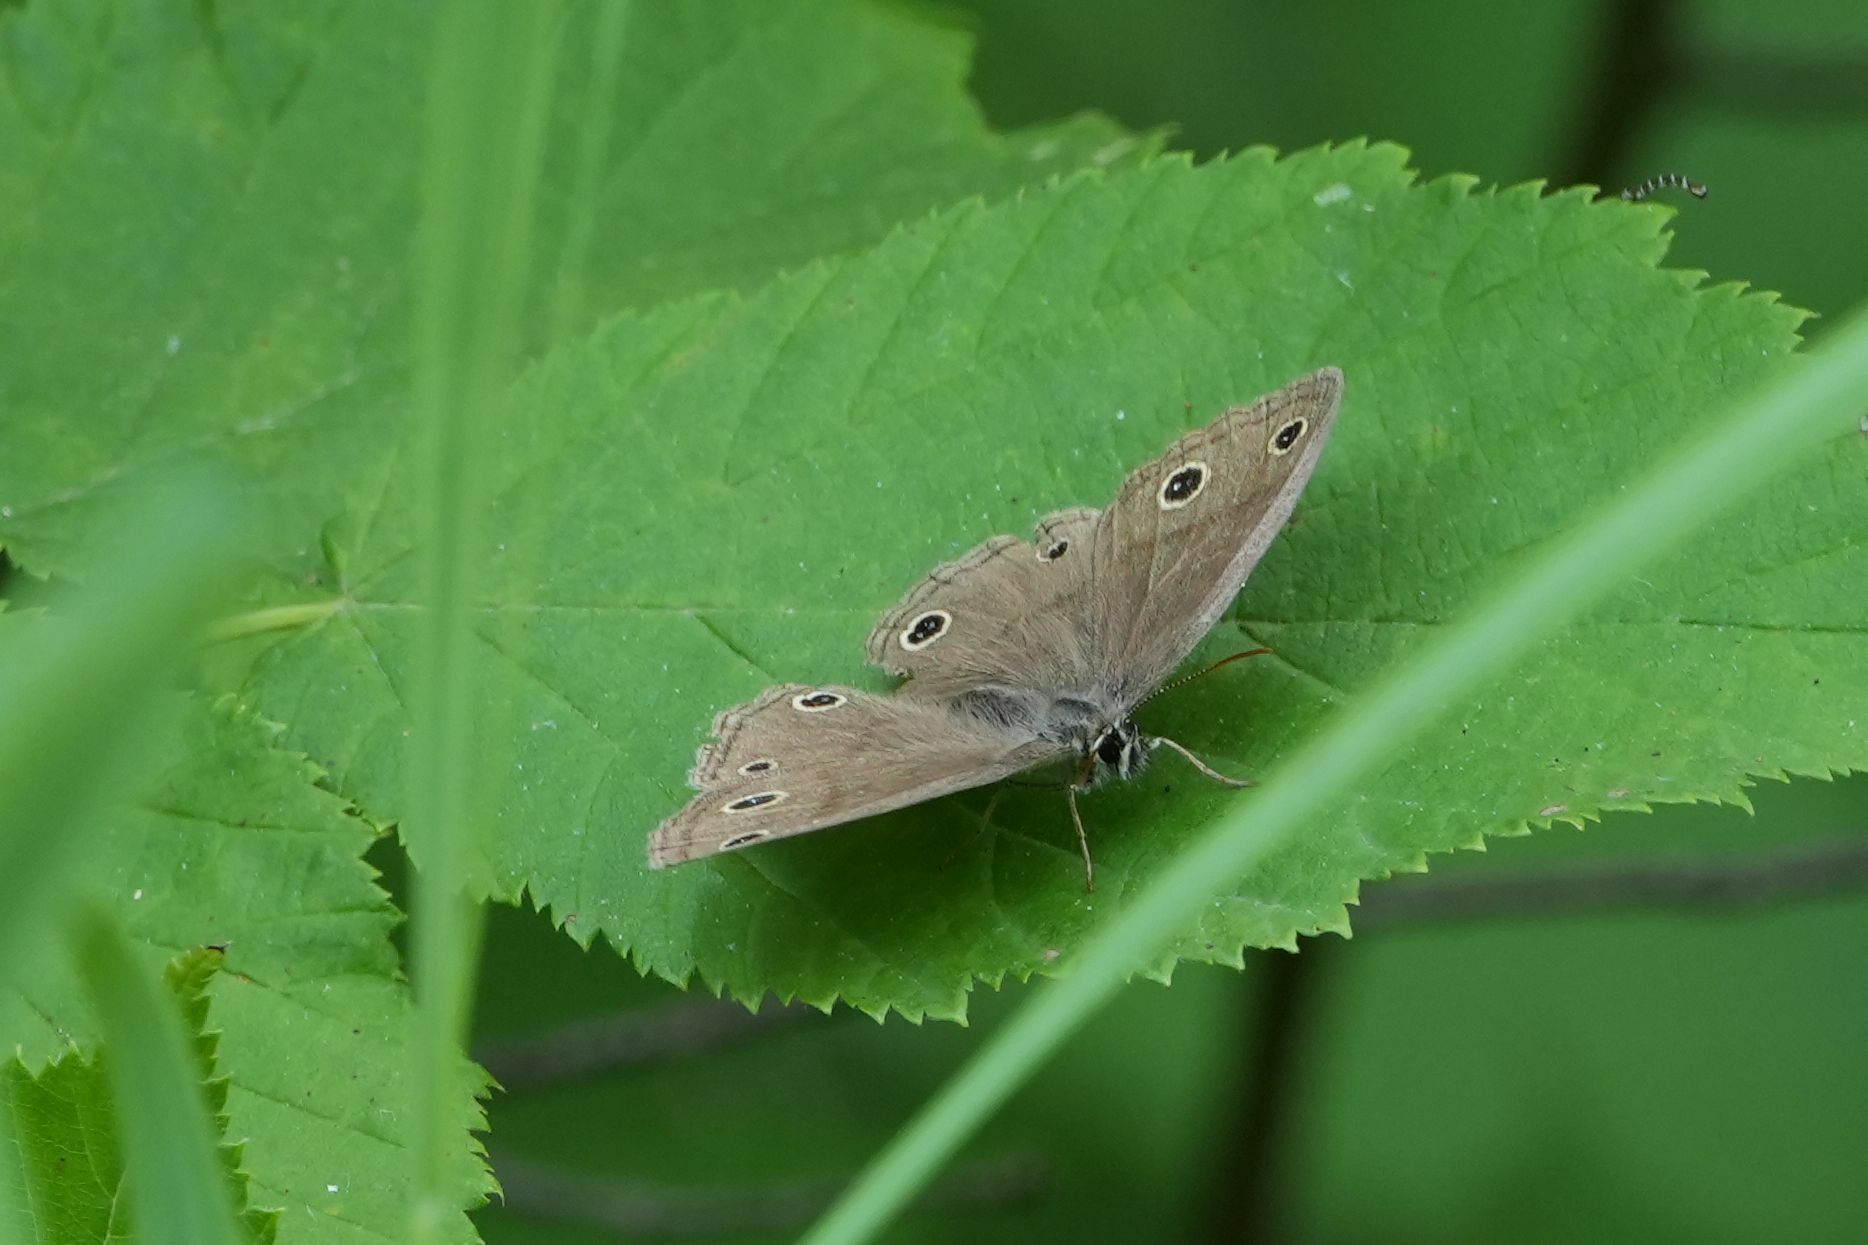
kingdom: Animalia
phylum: Arthropoda
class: Insecta
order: Lepidoptera
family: Nymphalidae
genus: Euptychia
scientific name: Euptychia cymela
